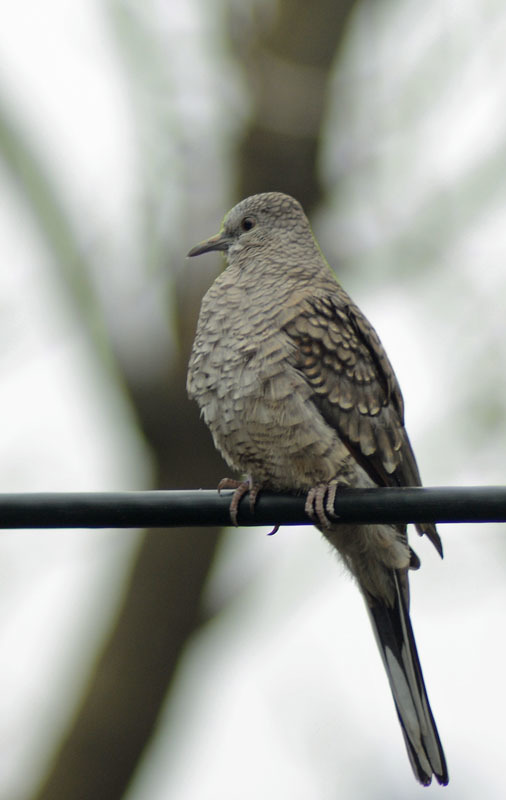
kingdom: Animalia
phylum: Chordata
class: Aves
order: Columbiformes
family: Columbidae
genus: Columbina
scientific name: Columbina inca
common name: Inca dove
